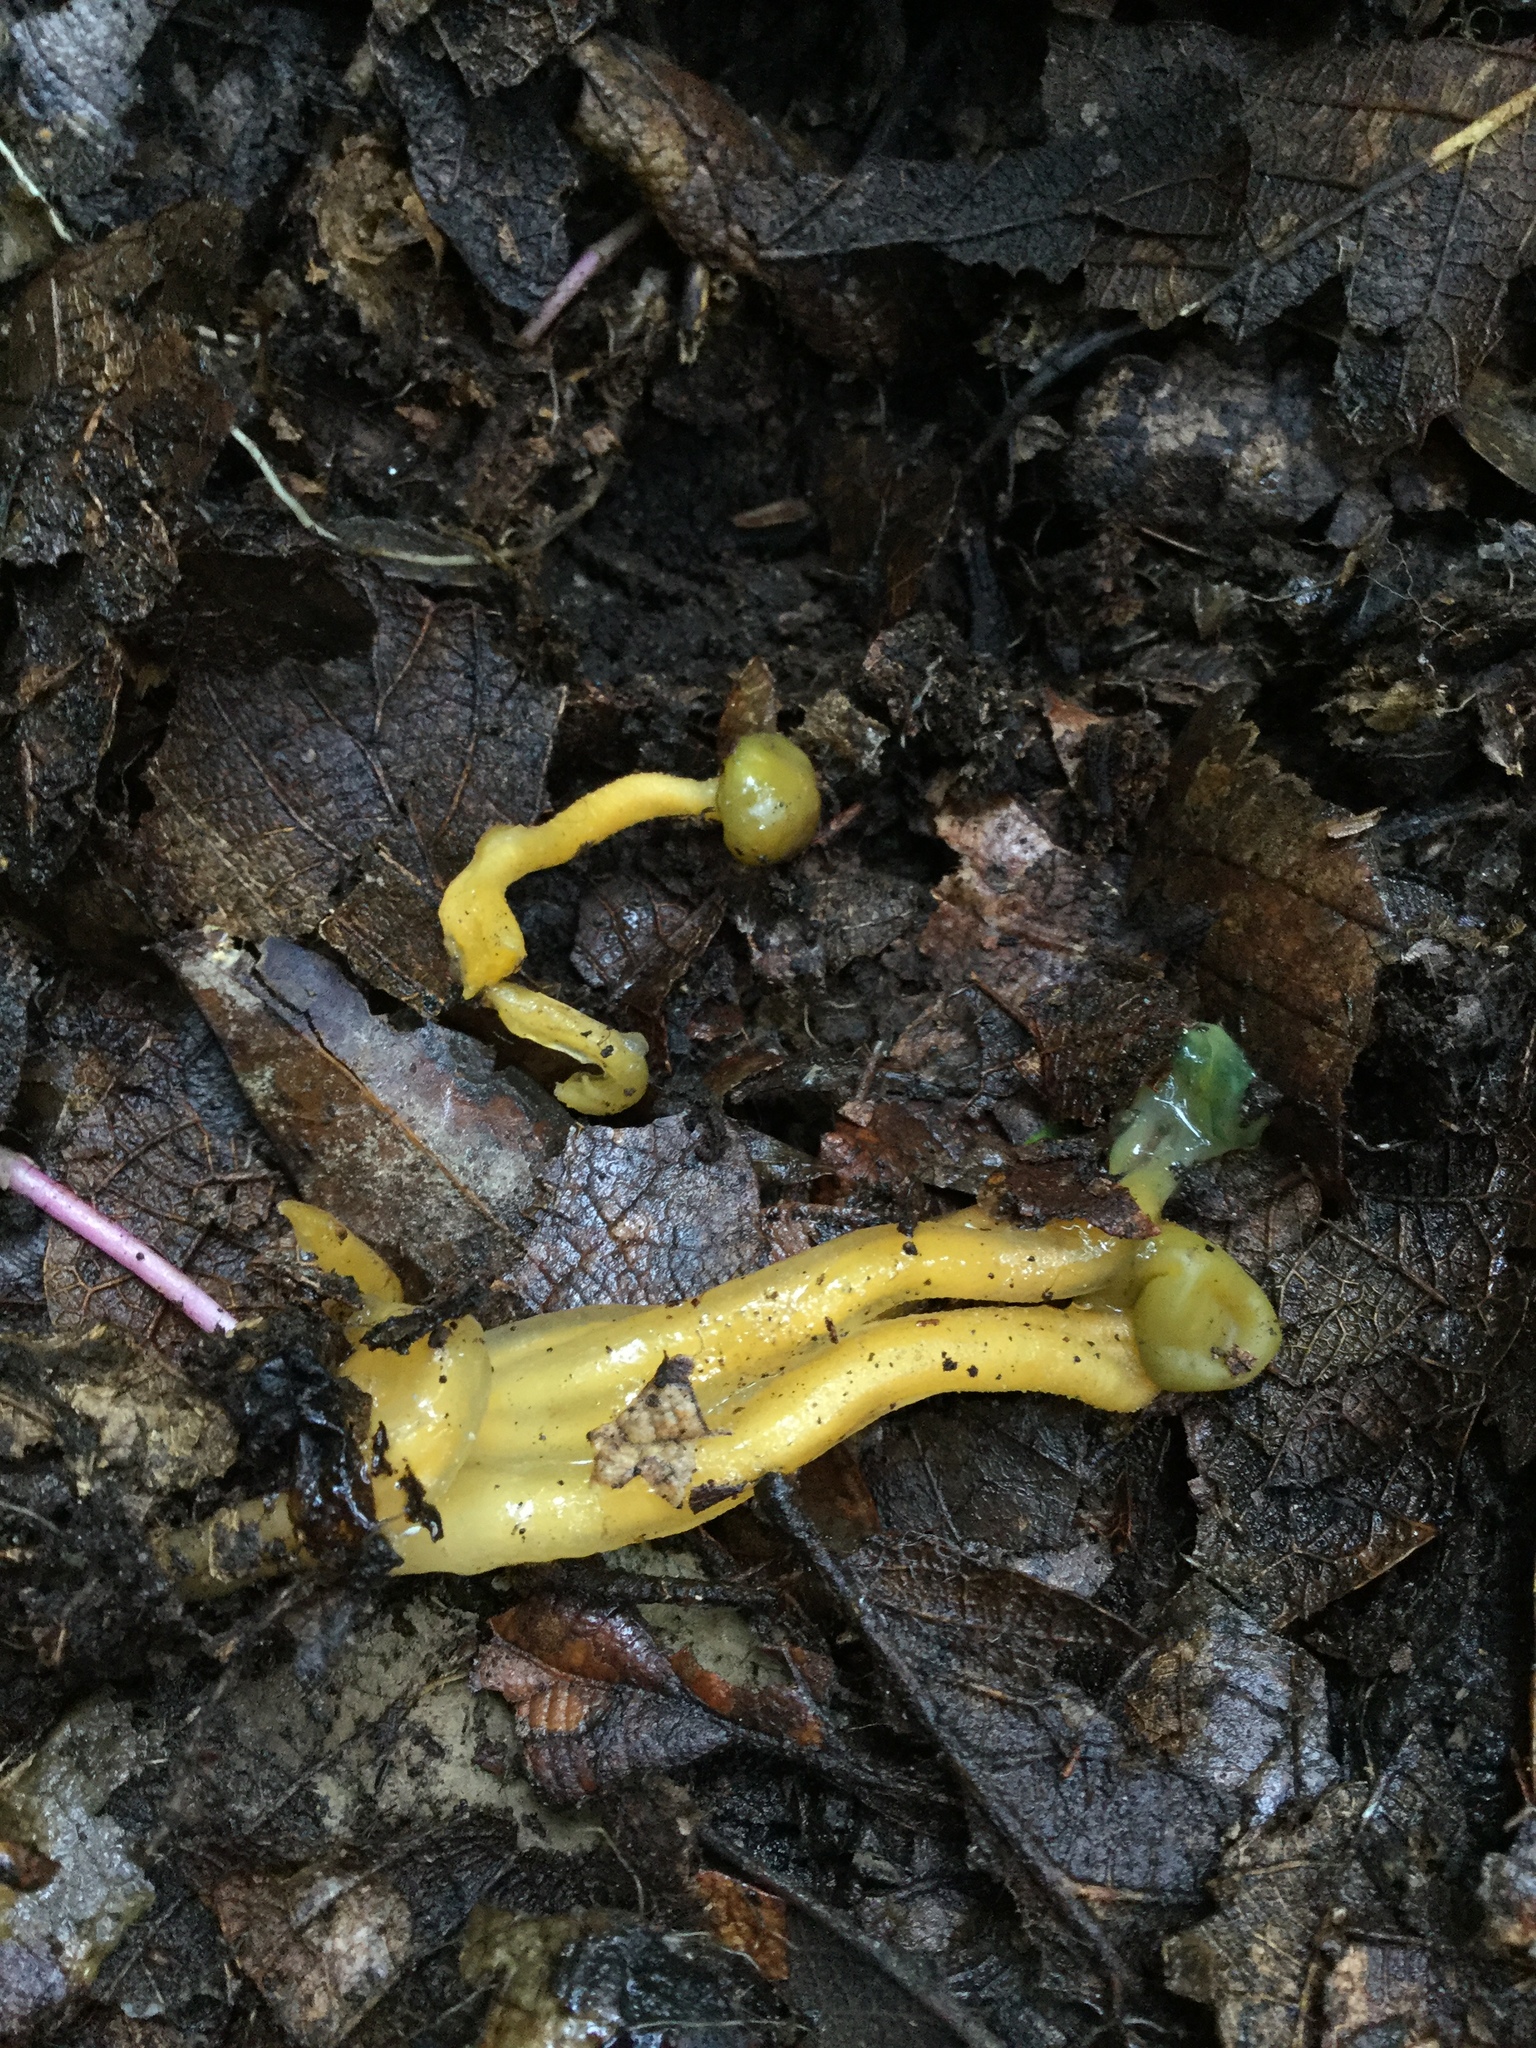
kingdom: Fungi
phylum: Ascomycota
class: Leotiomycetes
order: Leotiales
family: Leotiaceae
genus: Leotia
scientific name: Leotia lubrica
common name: Jellybaby
